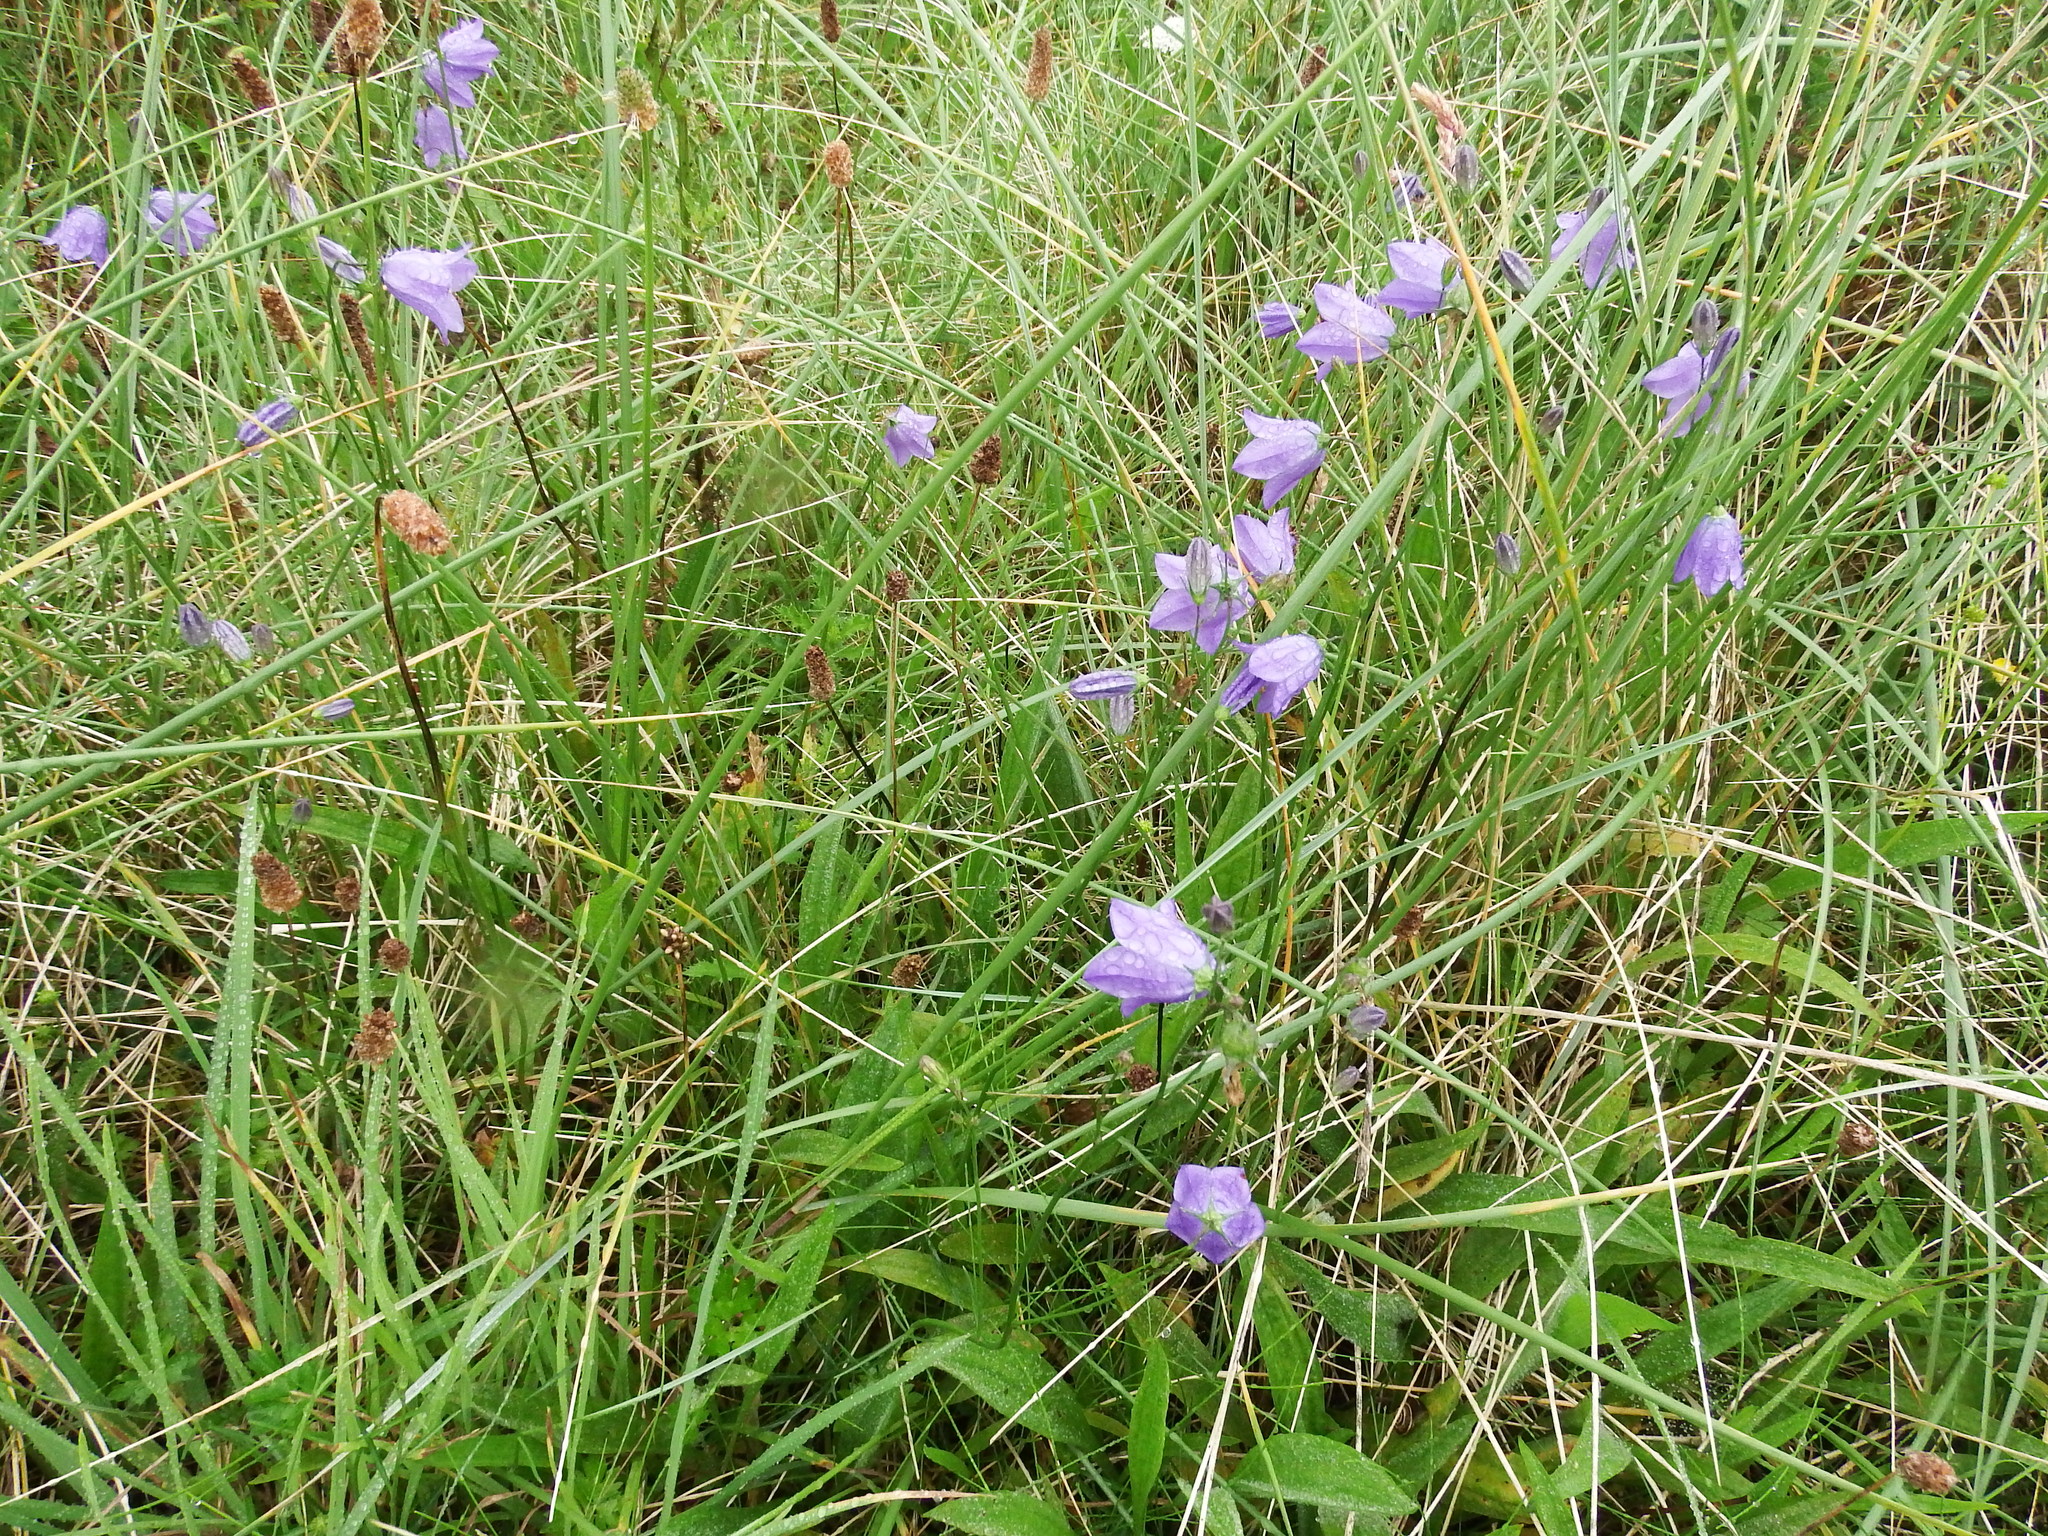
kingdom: Plantae
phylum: Tracheophyta
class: Magnoliopsida
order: Asterales
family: Campanulaceae
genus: Campanula
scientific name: Campanula rotundifolia
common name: Harebell
